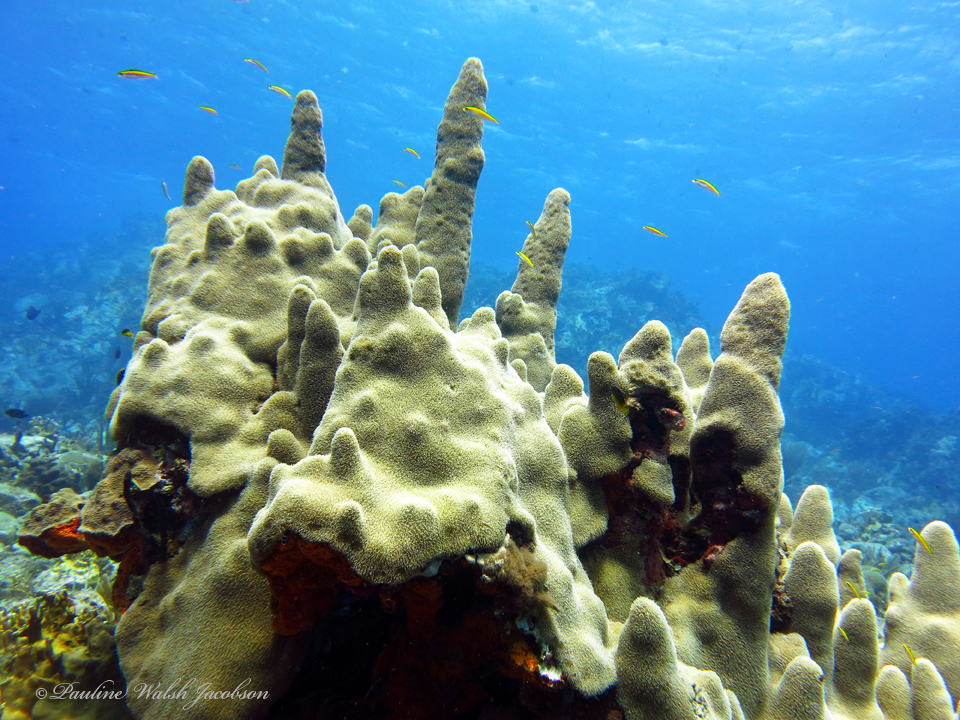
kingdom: Animalia
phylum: Cnidaria
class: Anthozoa
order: Scleractinia
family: Meandrinidae
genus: Dendrogyra
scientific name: Dendrogyra cylindrus
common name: Pillar coral
